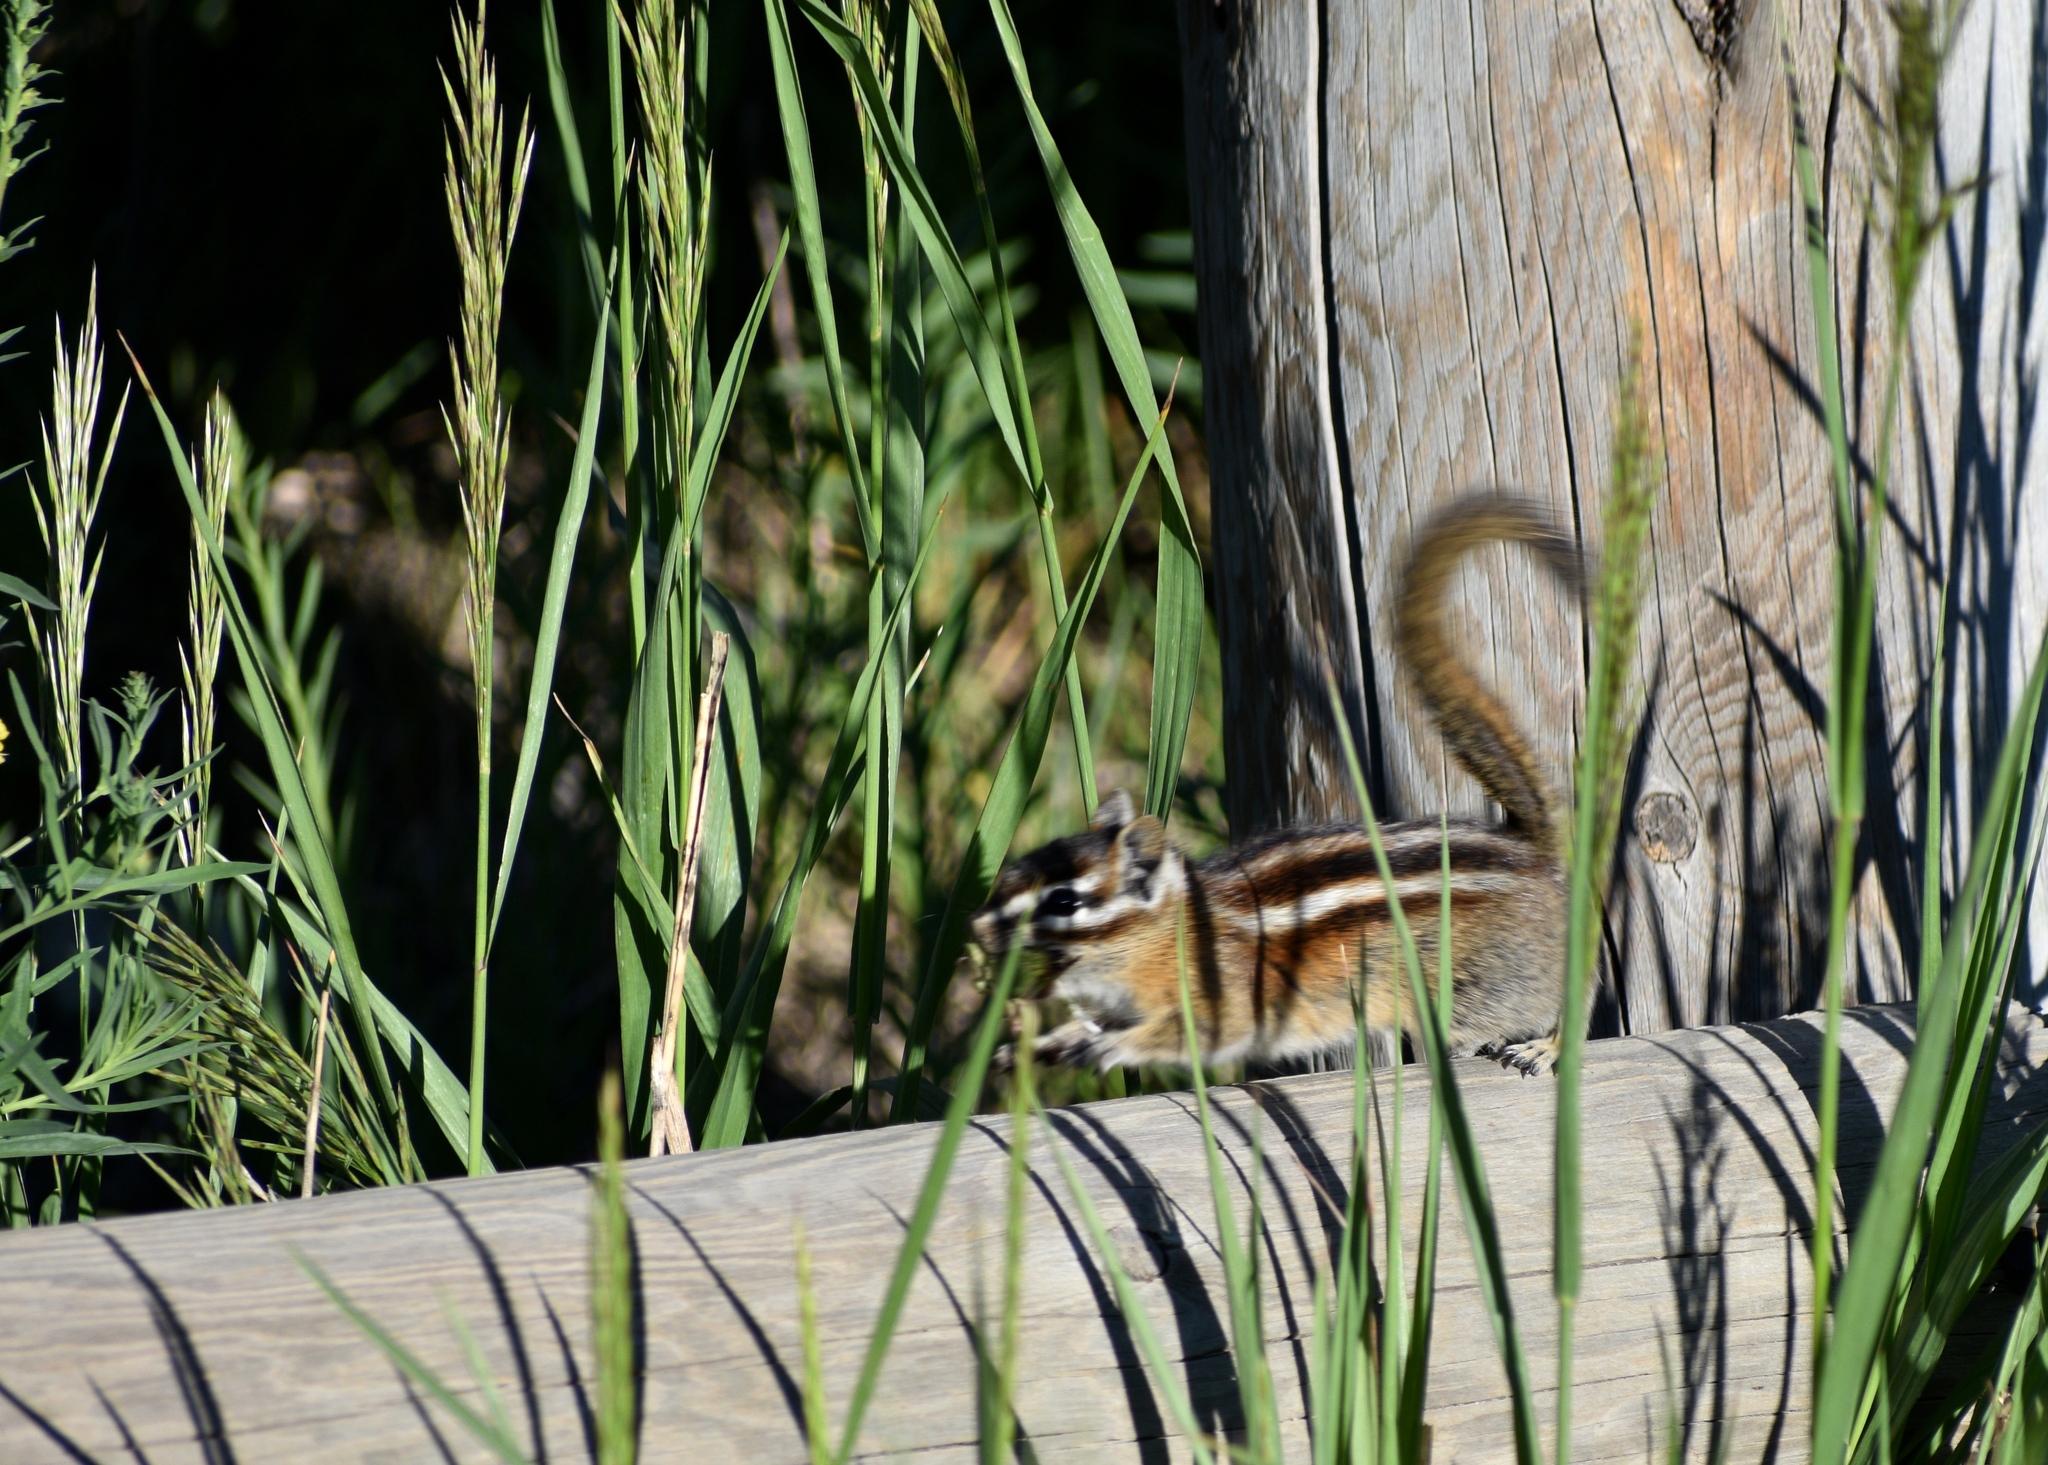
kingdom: Animalia
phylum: Chordata
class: Mammalia
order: Rodentia
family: Sciuridae
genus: Tamias
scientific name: Tamias minimus
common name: Least chipmunk
